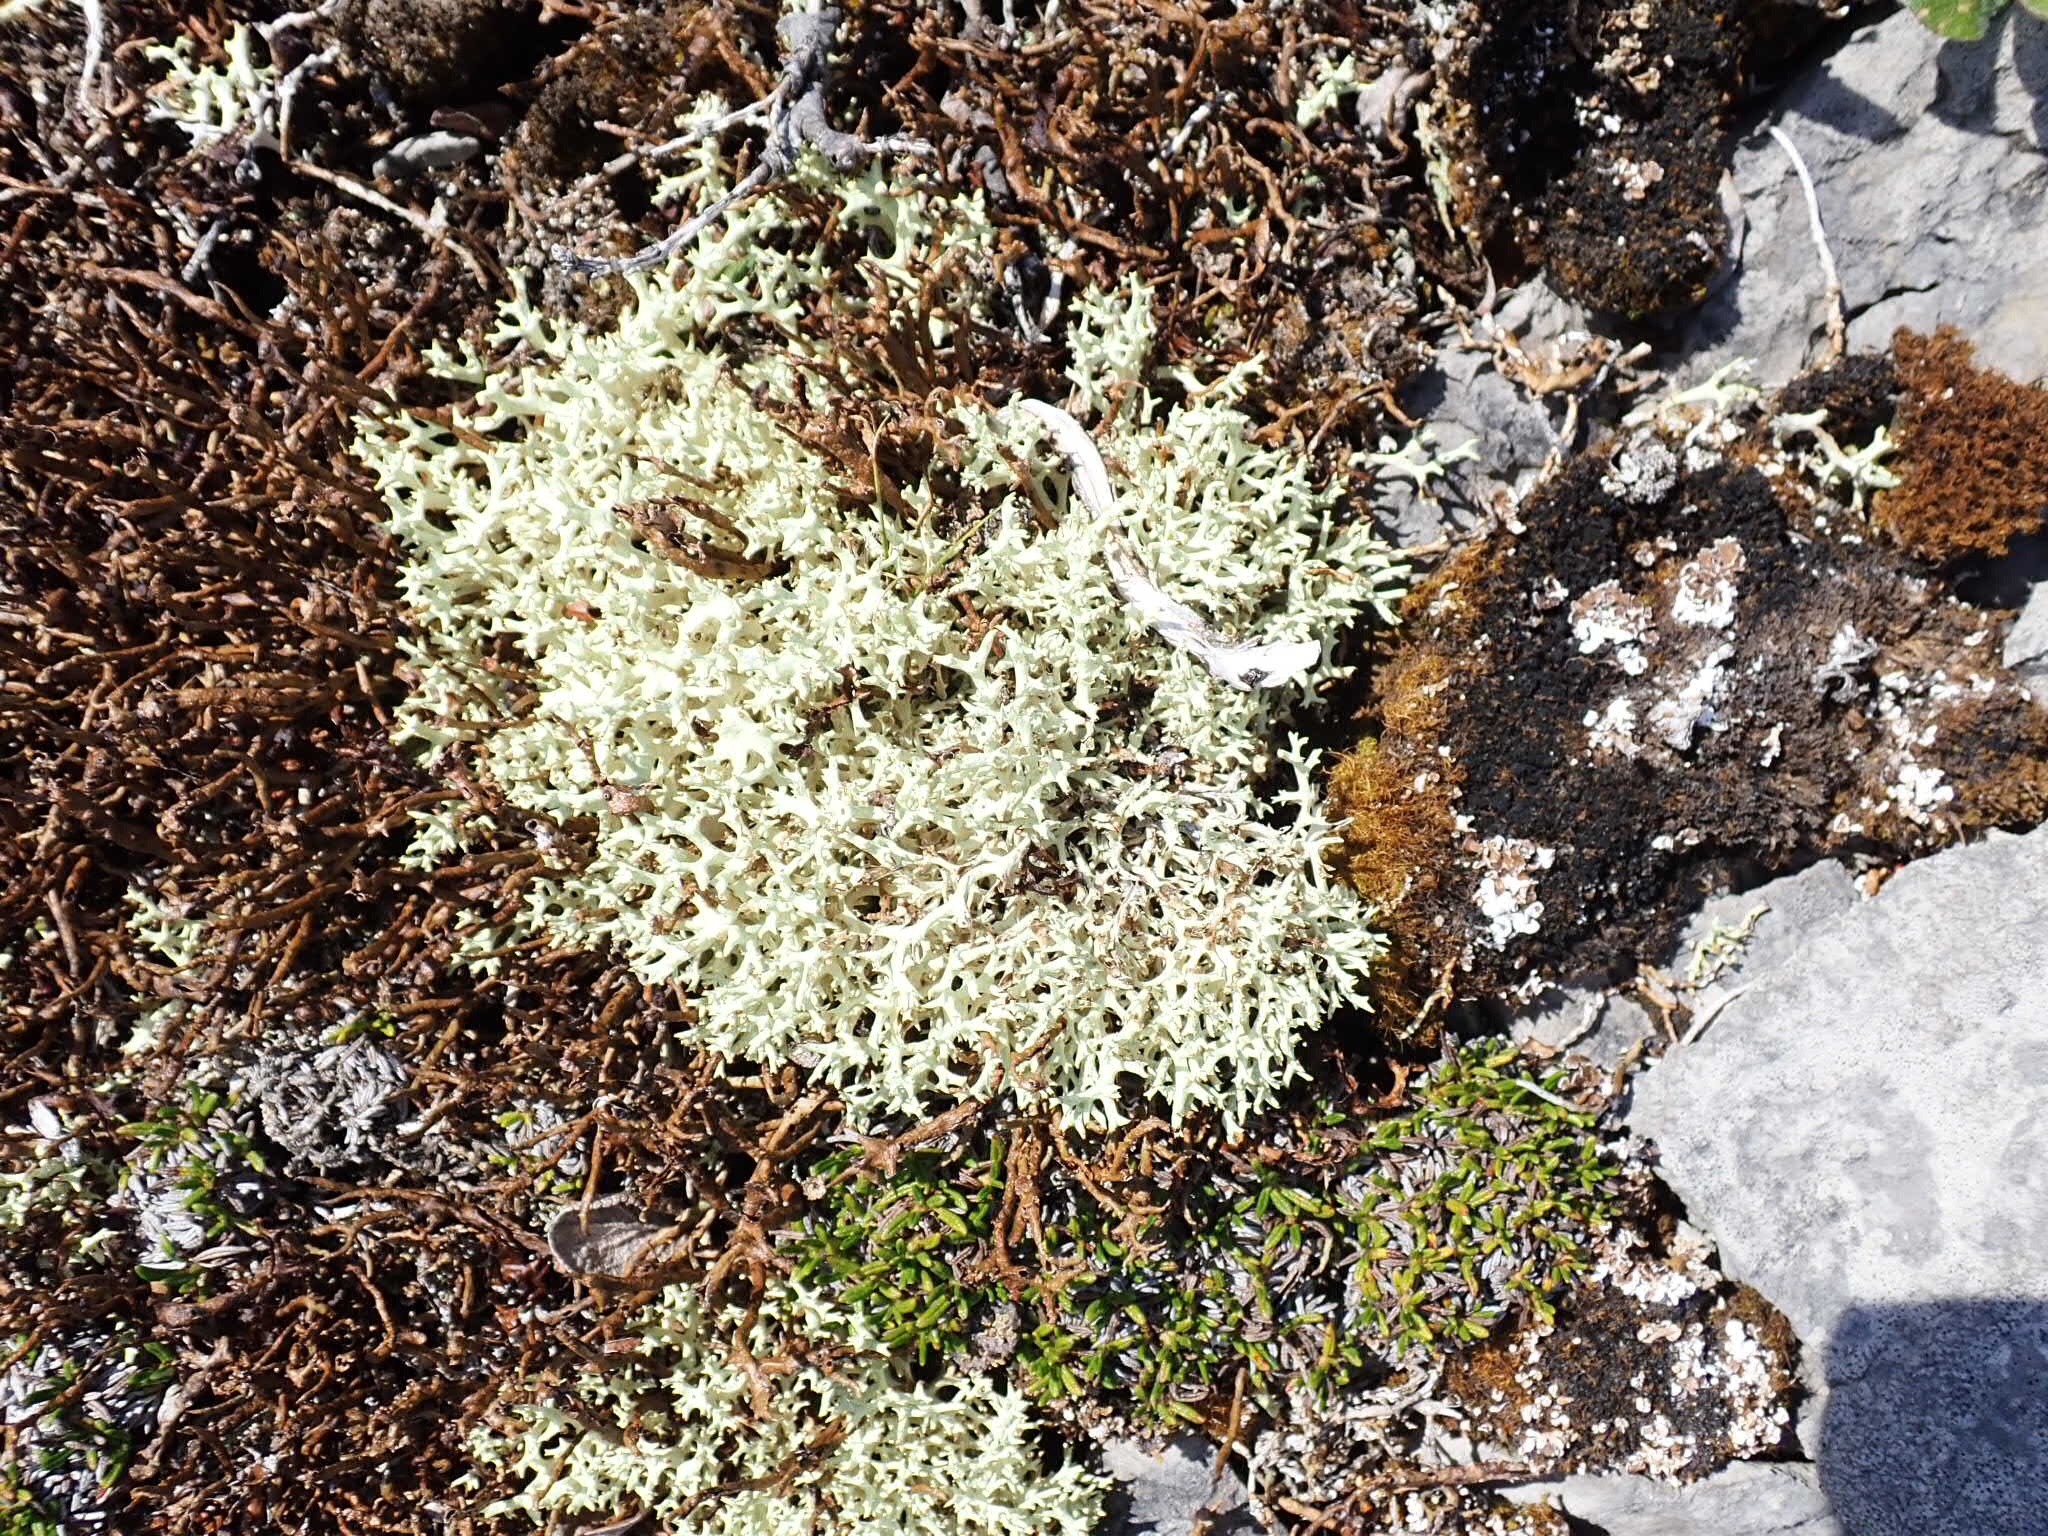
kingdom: Fungi
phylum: Ascomycota
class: Lecanoromycetes
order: Lecanorales
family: Cladoniaceae
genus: Cladonia
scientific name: Cladonia uncialis
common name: Thorn lichen
